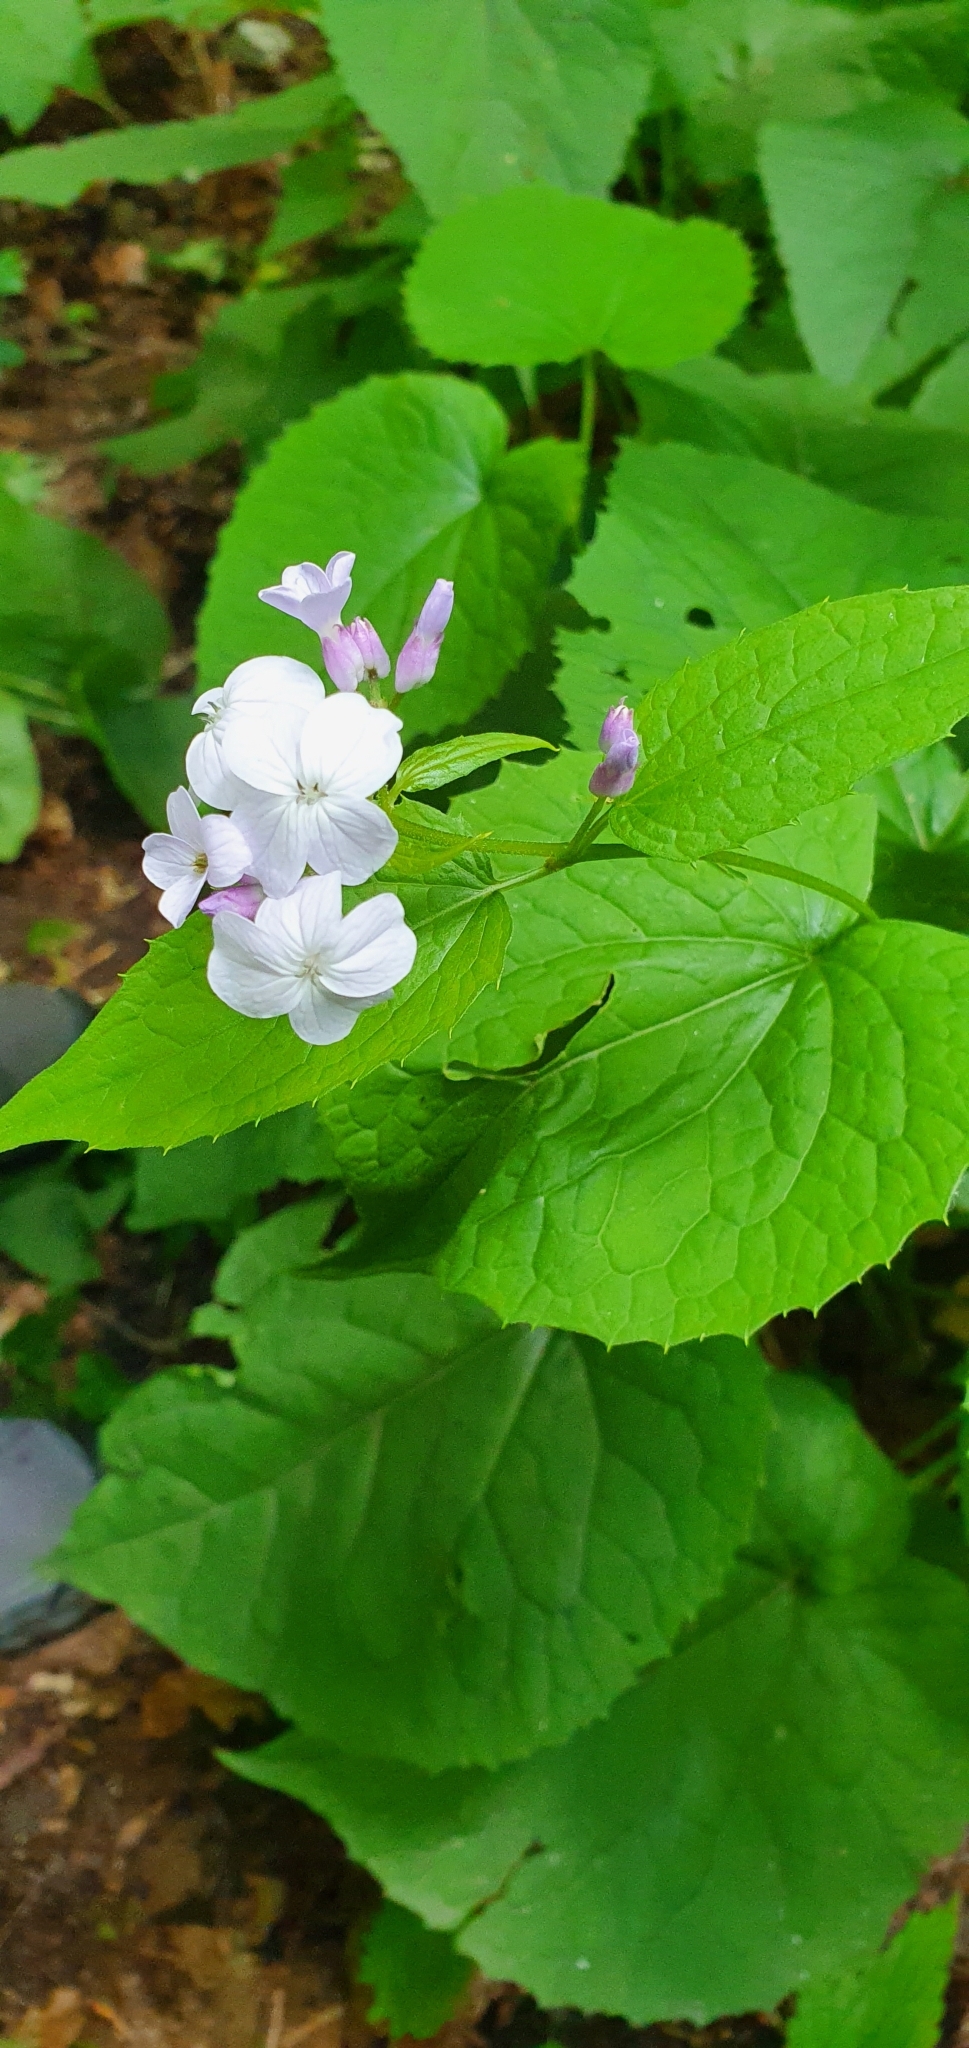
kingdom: Plantae
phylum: Tracheophyta
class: Magnoliopsida
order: Brassicales
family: Brassicaceae
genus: Lunaria
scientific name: Lunaria rediviva
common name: Perennial honesty
